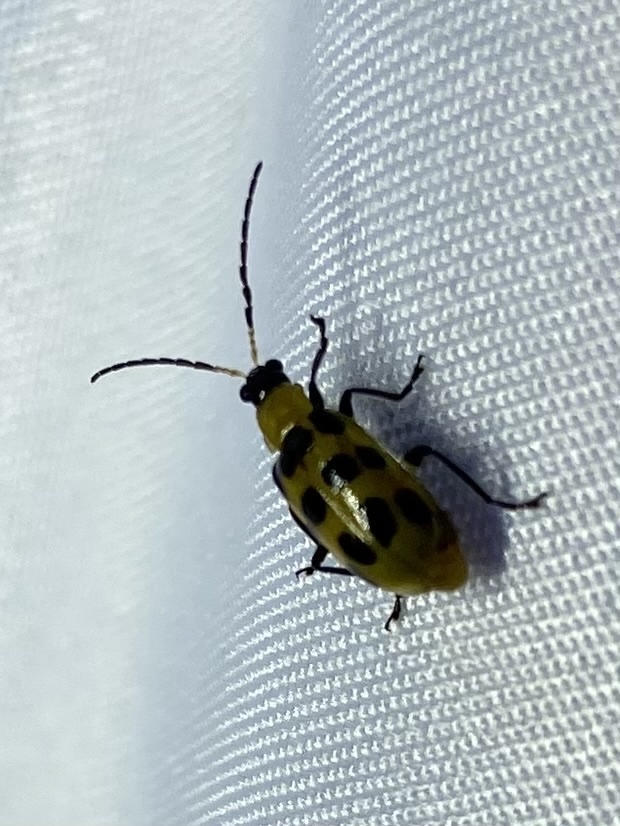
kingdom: Animalia
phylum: Arthropoda
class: Insecta
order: Coleoptera
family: Chrysomelidae
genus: Diabrotica
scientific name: Diabrotica undecimpunctata
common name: Spotted cucumber beetle
